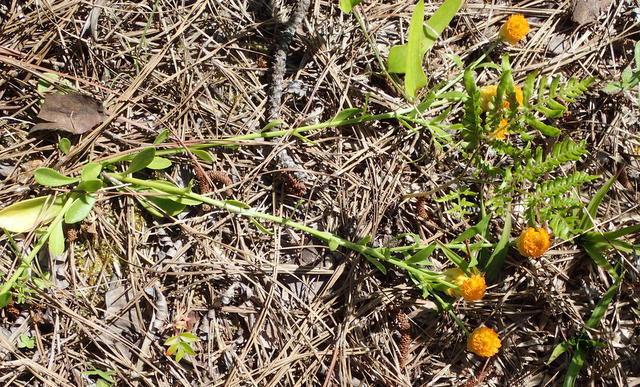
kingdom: Plantae
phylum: Tracheophyta
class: Magnoliopsida
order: Fabales
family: Polygalaceae
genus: Polygala
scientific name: Polygala lutea
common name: Orange milkwort
